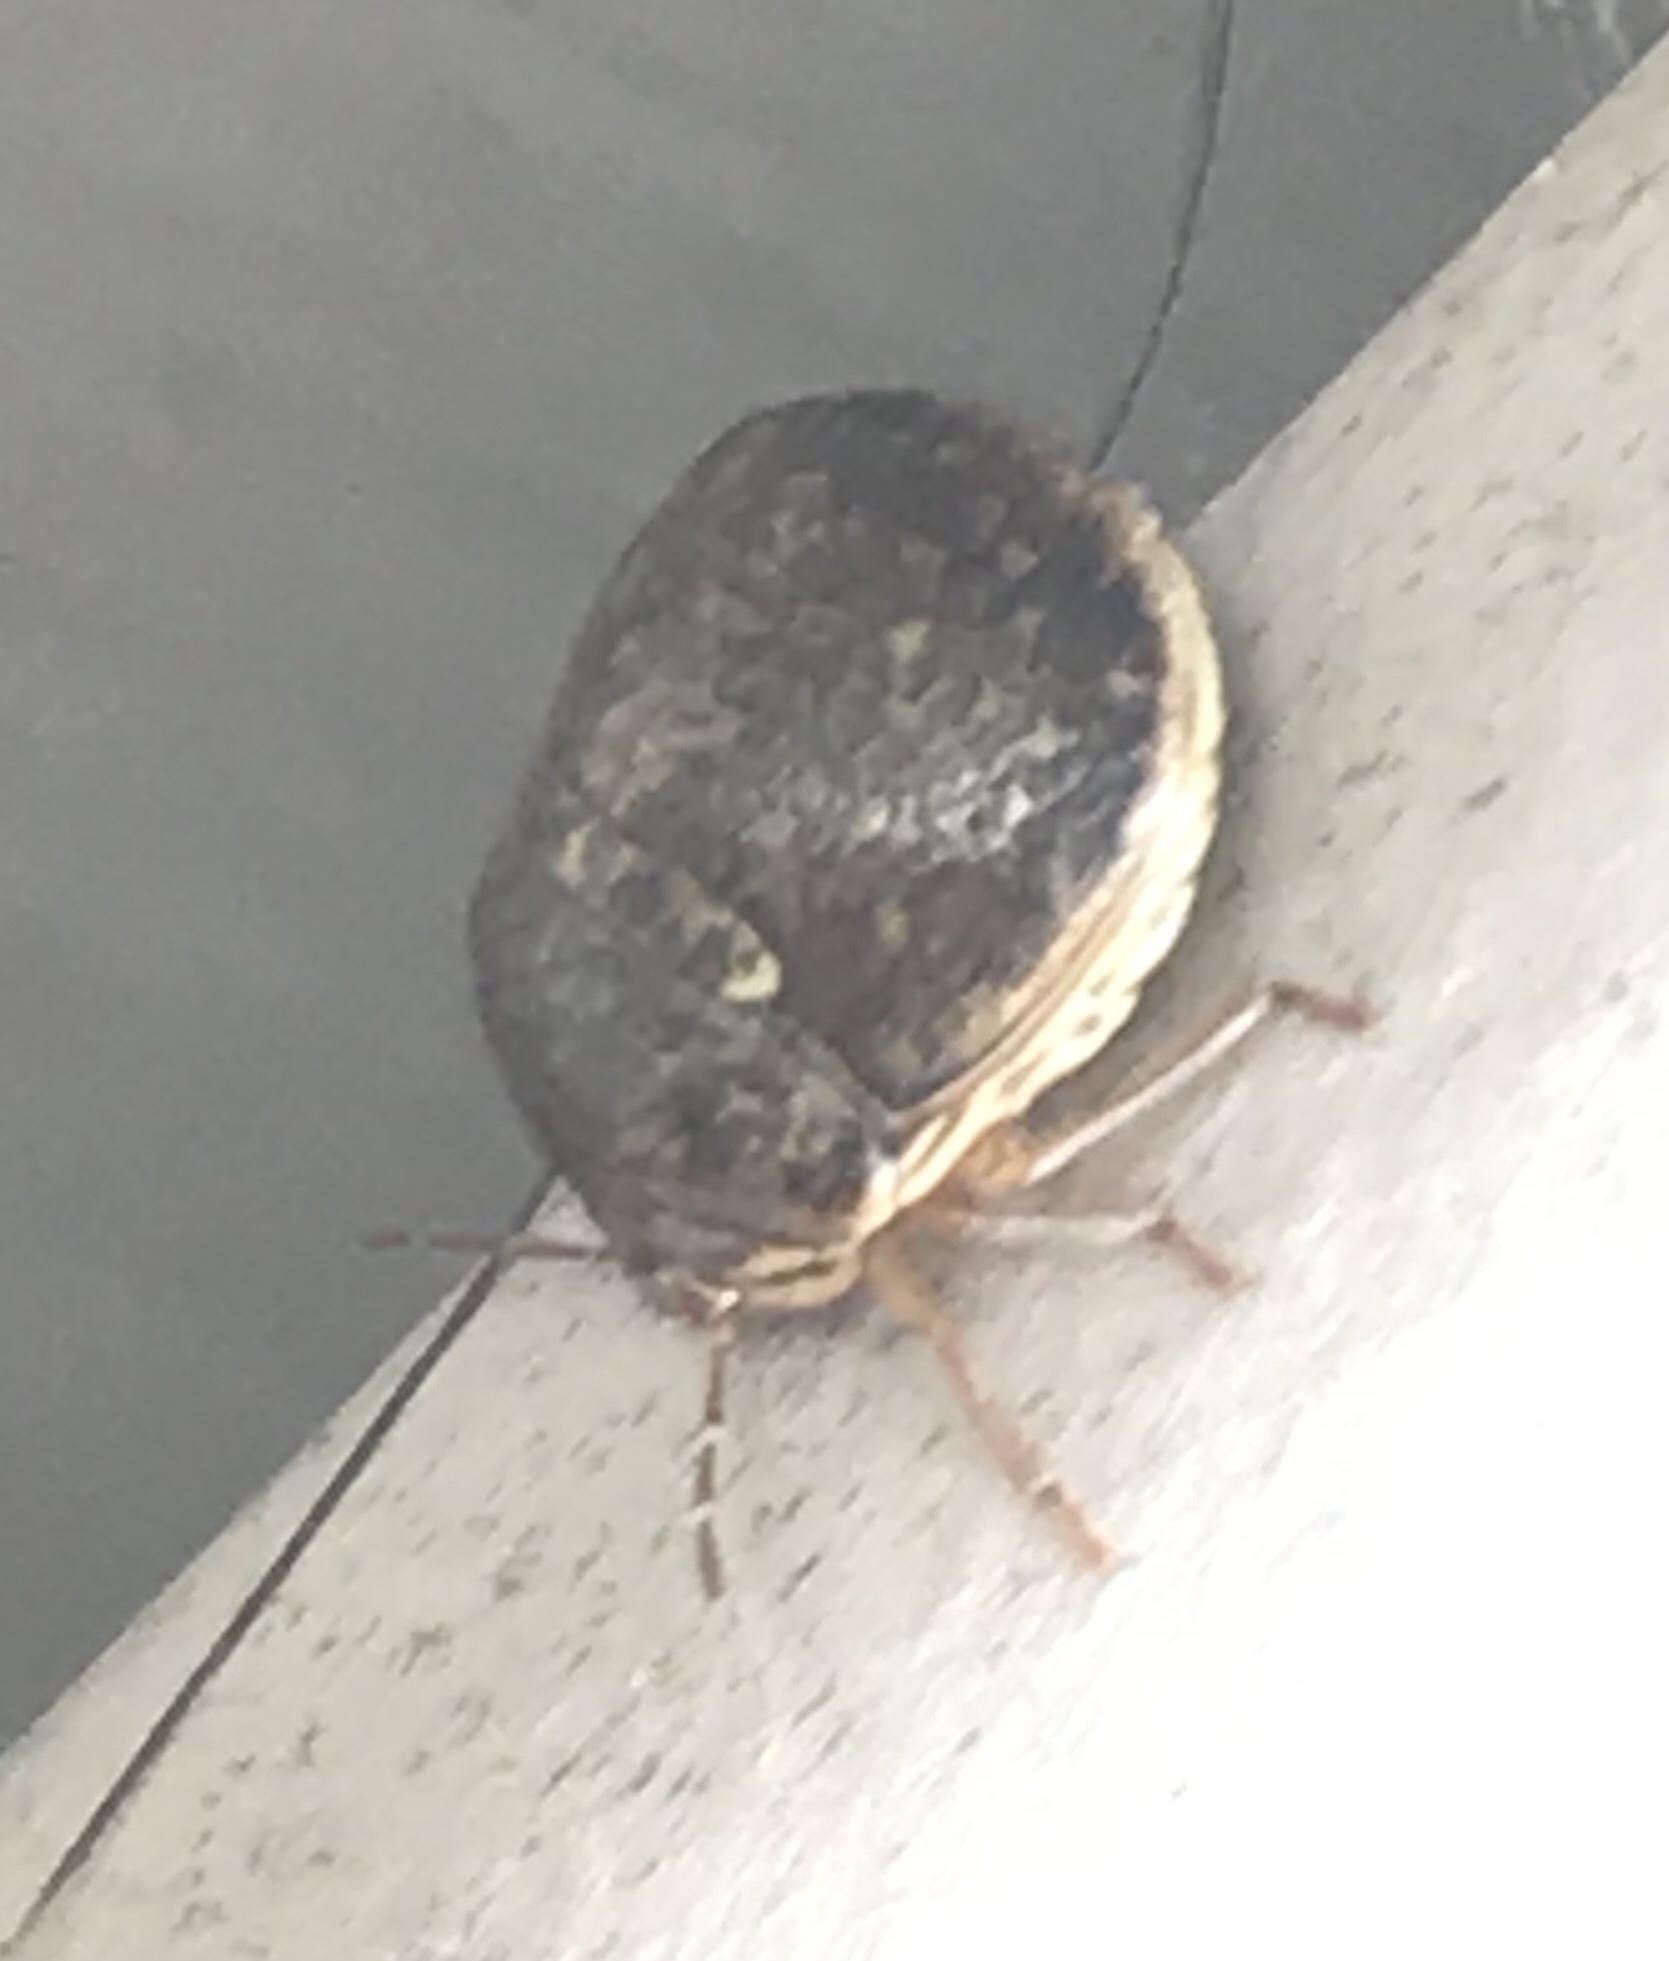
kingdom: Animalia
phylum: Arthropoda
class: Insecta
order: Hemiptera
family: Plataspidae
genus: Megacopta
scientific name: Megacopta cribraria
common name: Bean plataspid
